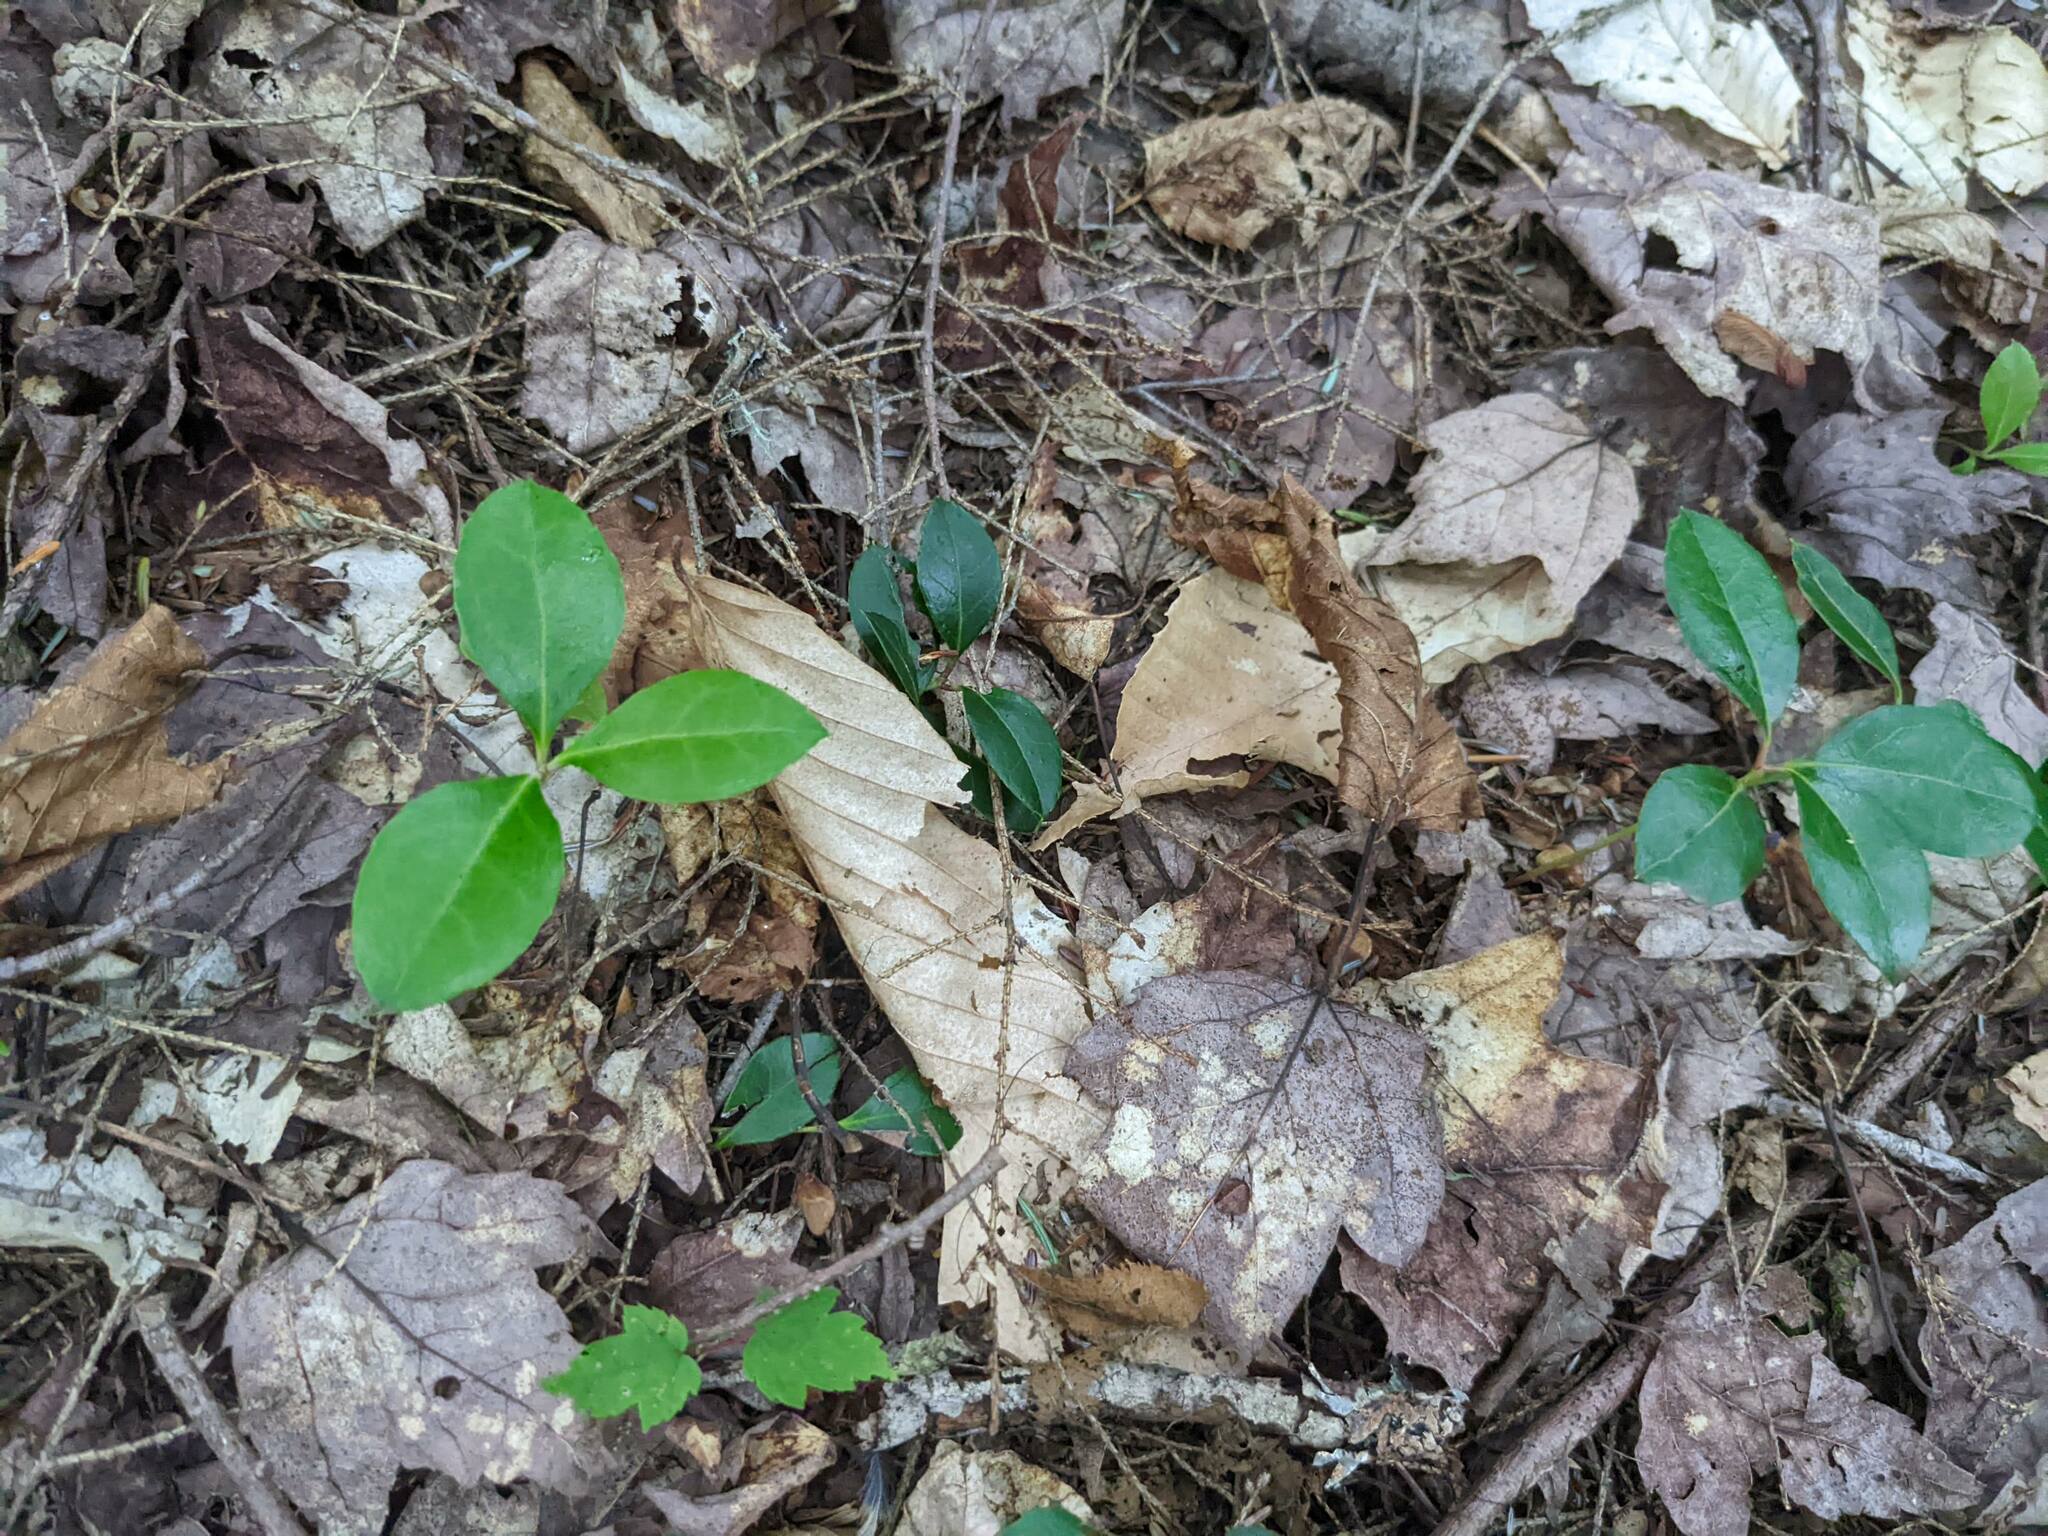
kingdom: Plantae
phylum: Tracheophyta
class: Magnoliopsida
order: Ericales
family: Ericaceae
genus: Gaultheria
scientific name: Gaultheria procumbens
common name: Checkerberry
